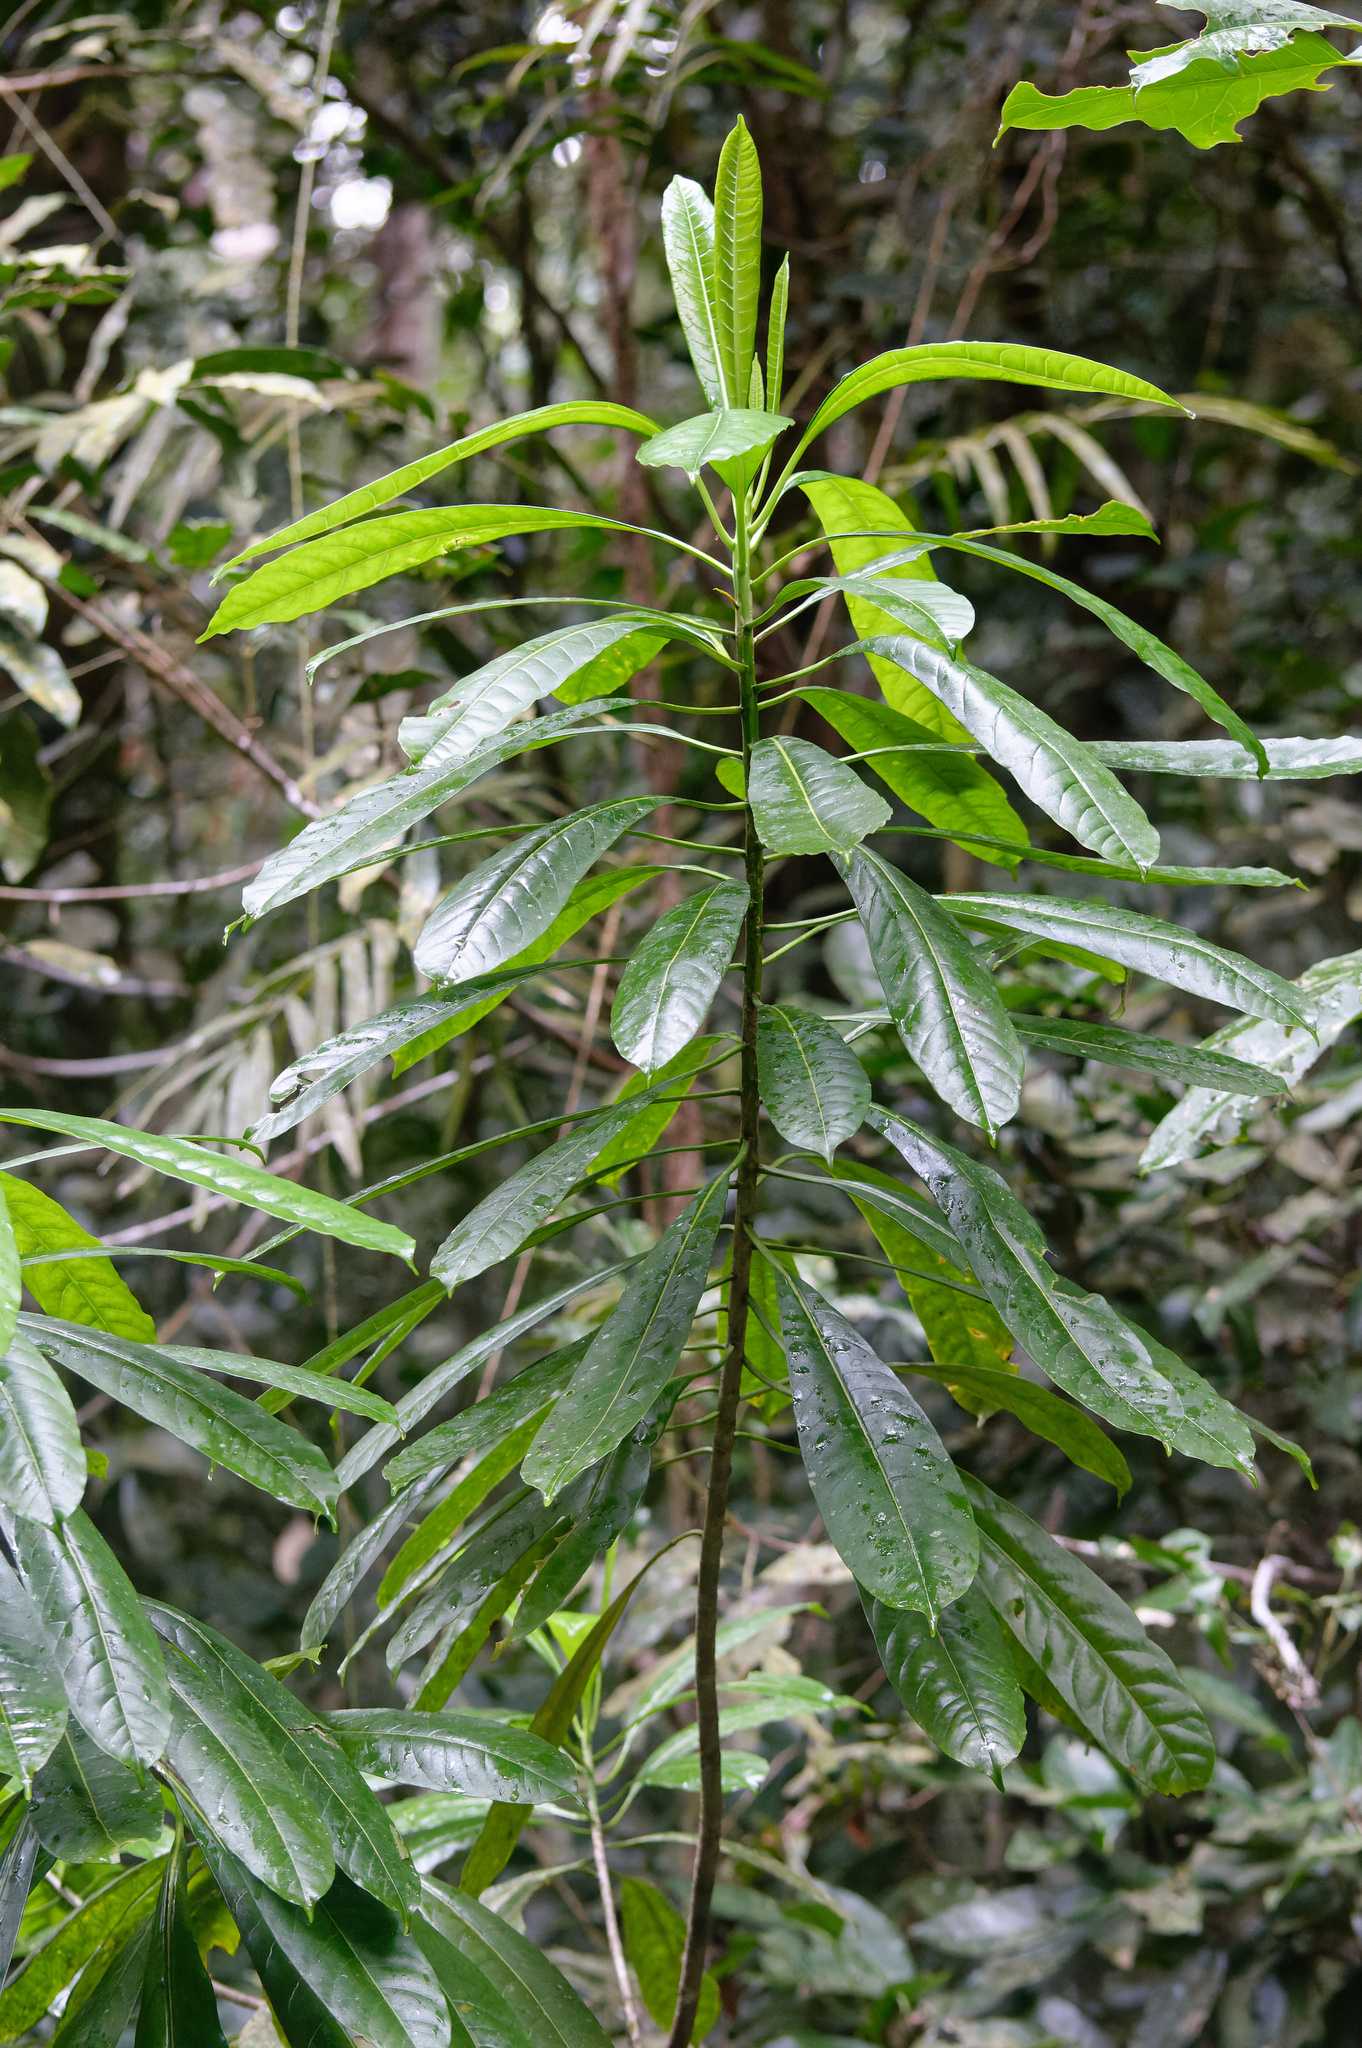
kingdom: Plantae
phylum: Tracheophyta
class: Magnoliopsida
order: Gentianales
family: Apocynaceae
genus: Cerbera
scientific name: Cerbera floribunda
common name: Cassowary plumtree
